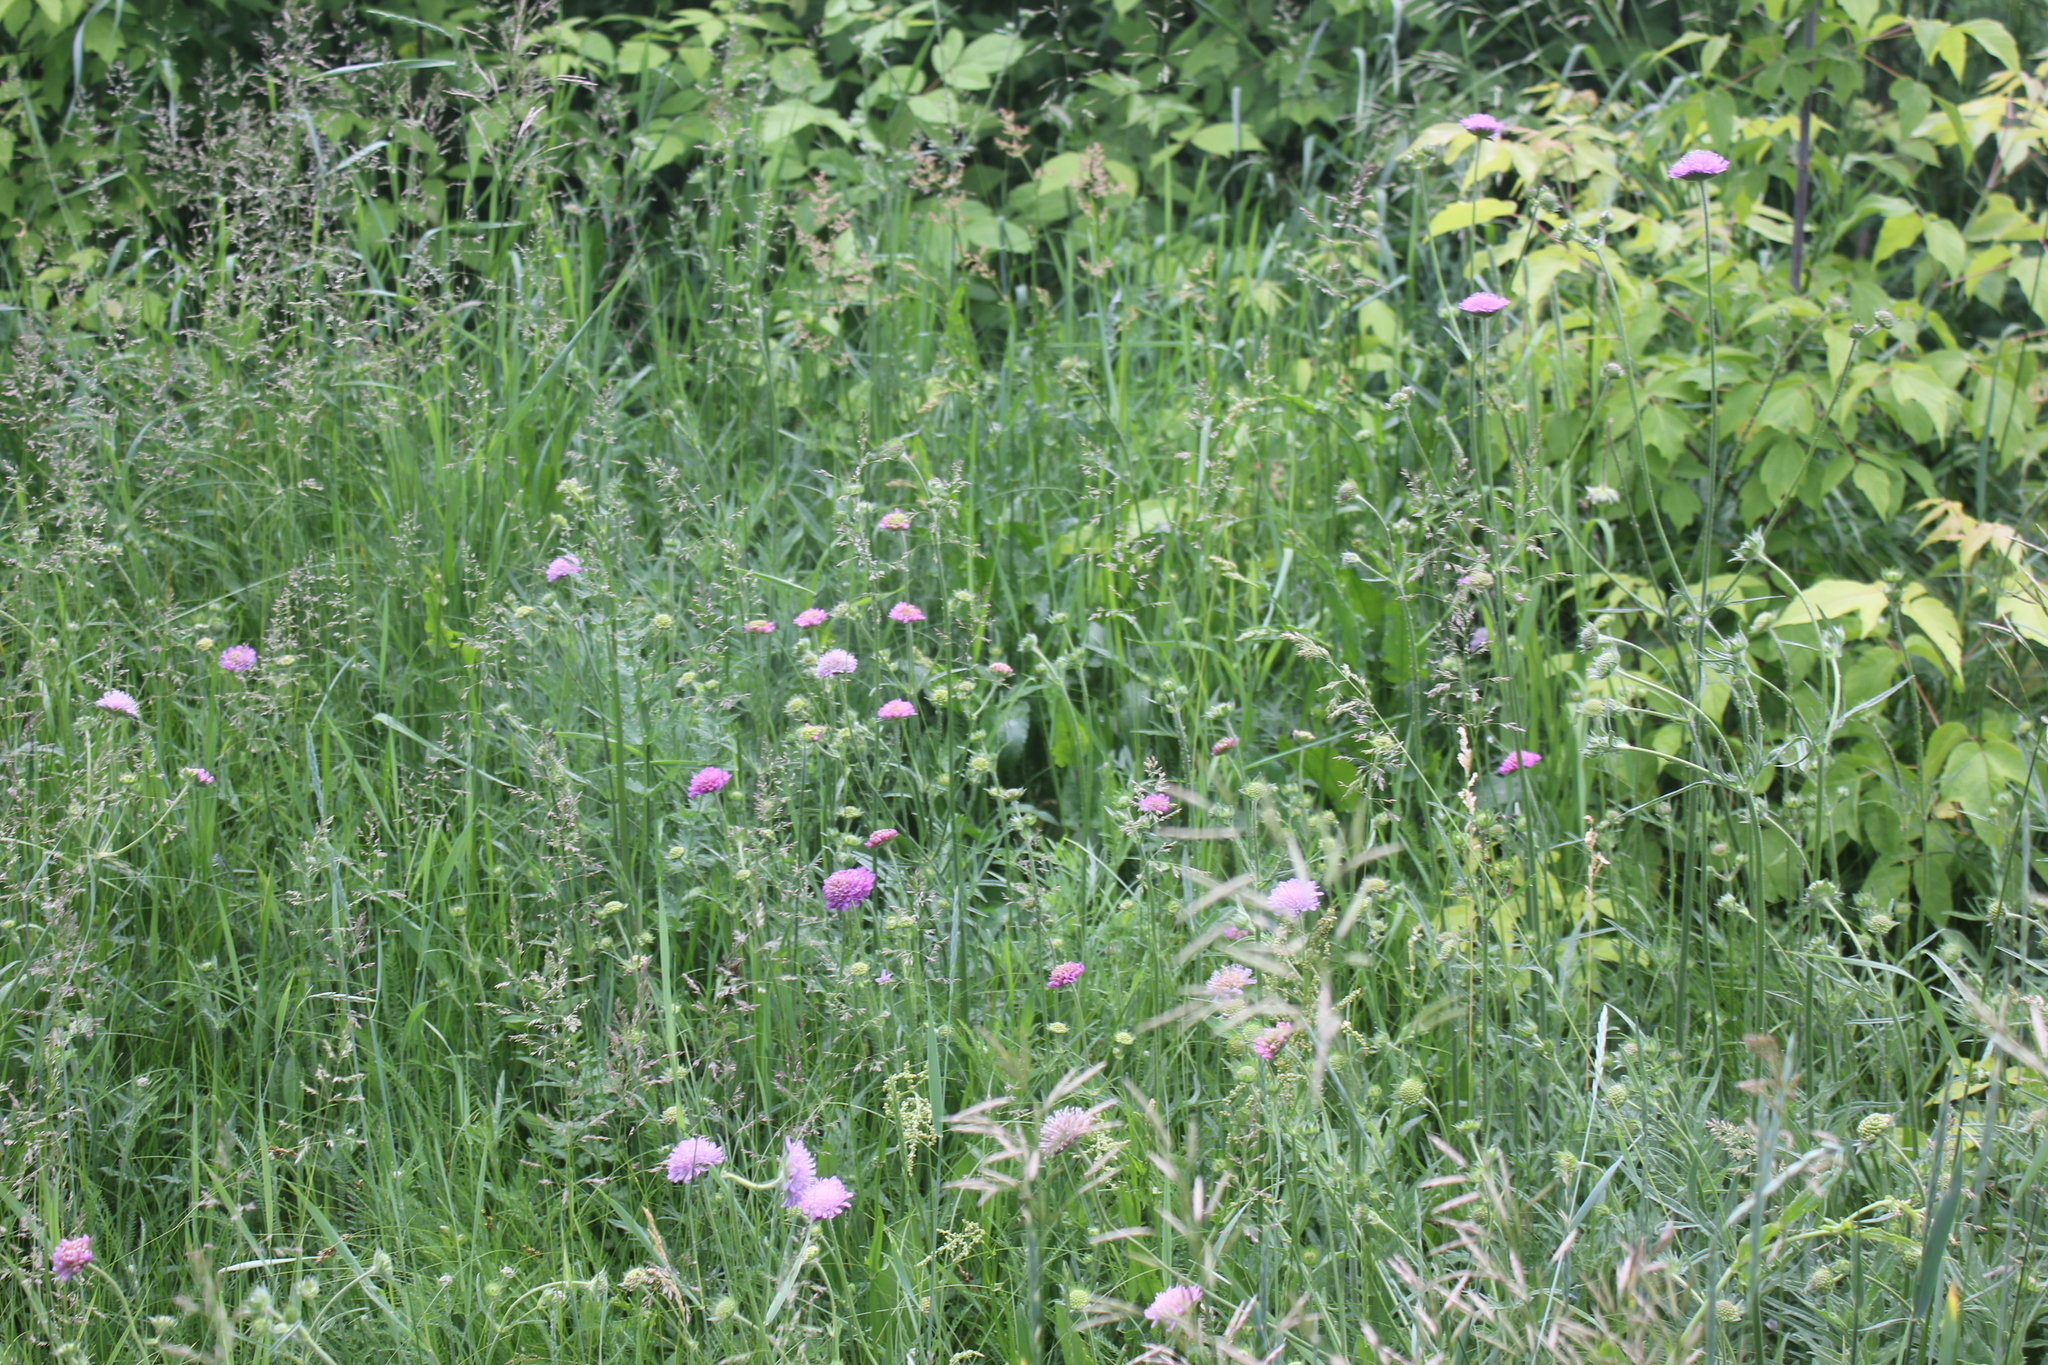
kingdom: Plantae
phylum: Tracheophyta
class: Magnoliopsida
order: Dipsacales
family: Caprifoliaceae
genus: Knautia
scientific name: Knautia arvensis
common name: Field scabiosa
